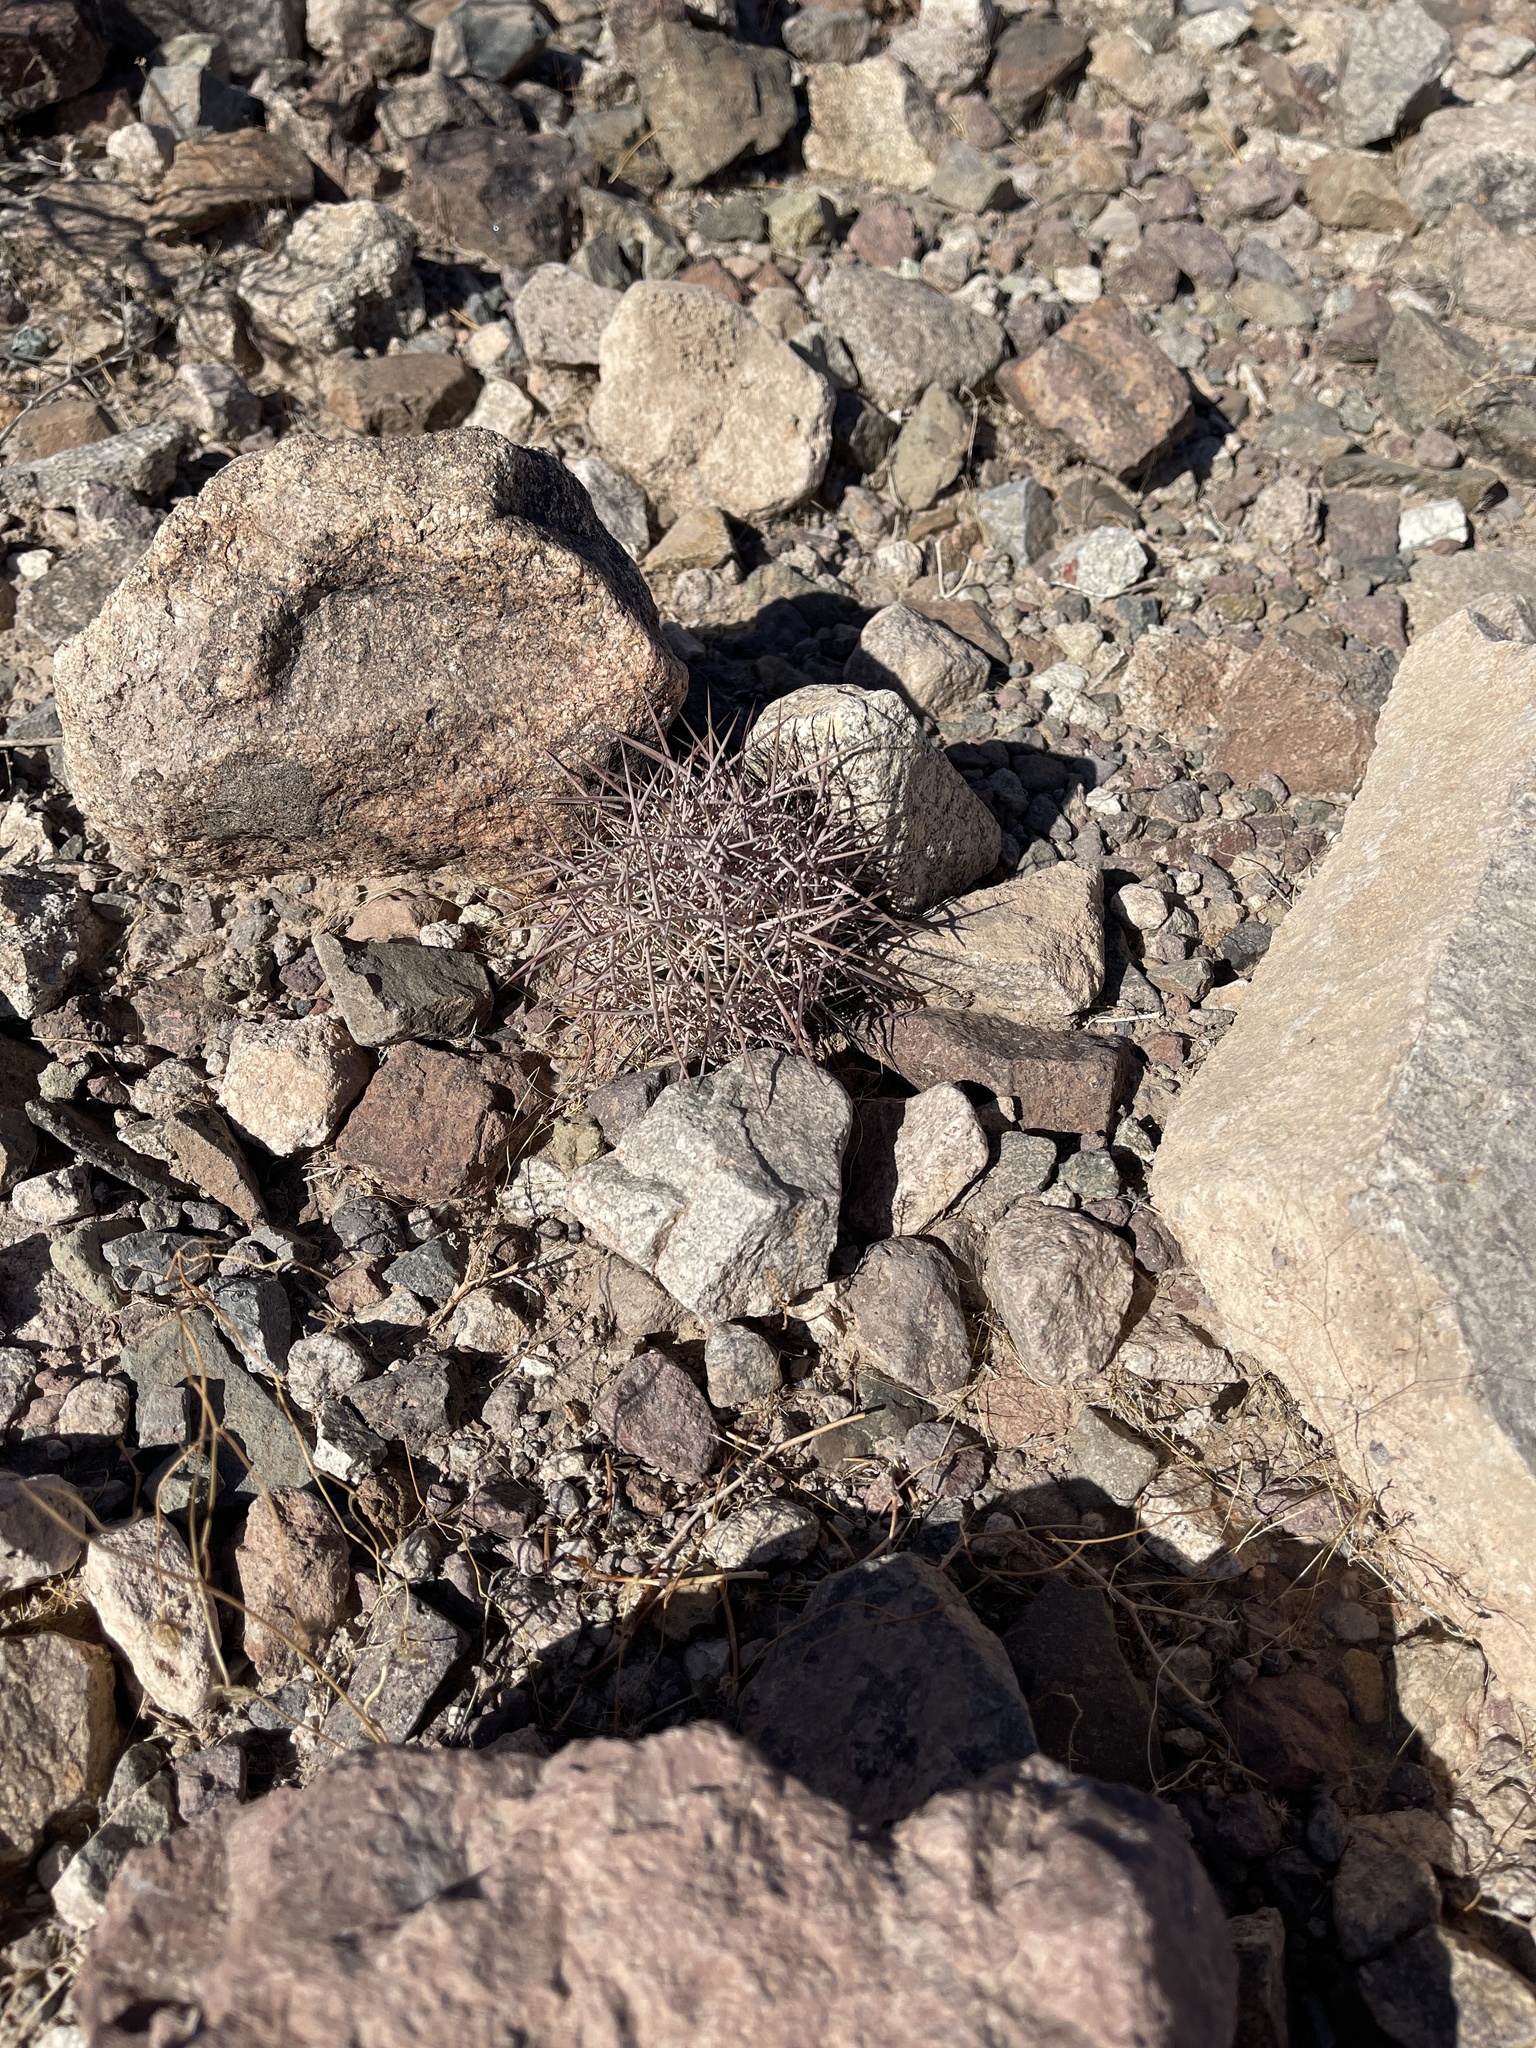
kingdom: Plantae
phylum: Tracheophyta
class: Magnoliopsida
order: Caryophyllales
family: Cactaceae
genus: Sclerocactus
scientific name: Sclerocactus johnsonii
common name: Eight-spine fishhook cactus
